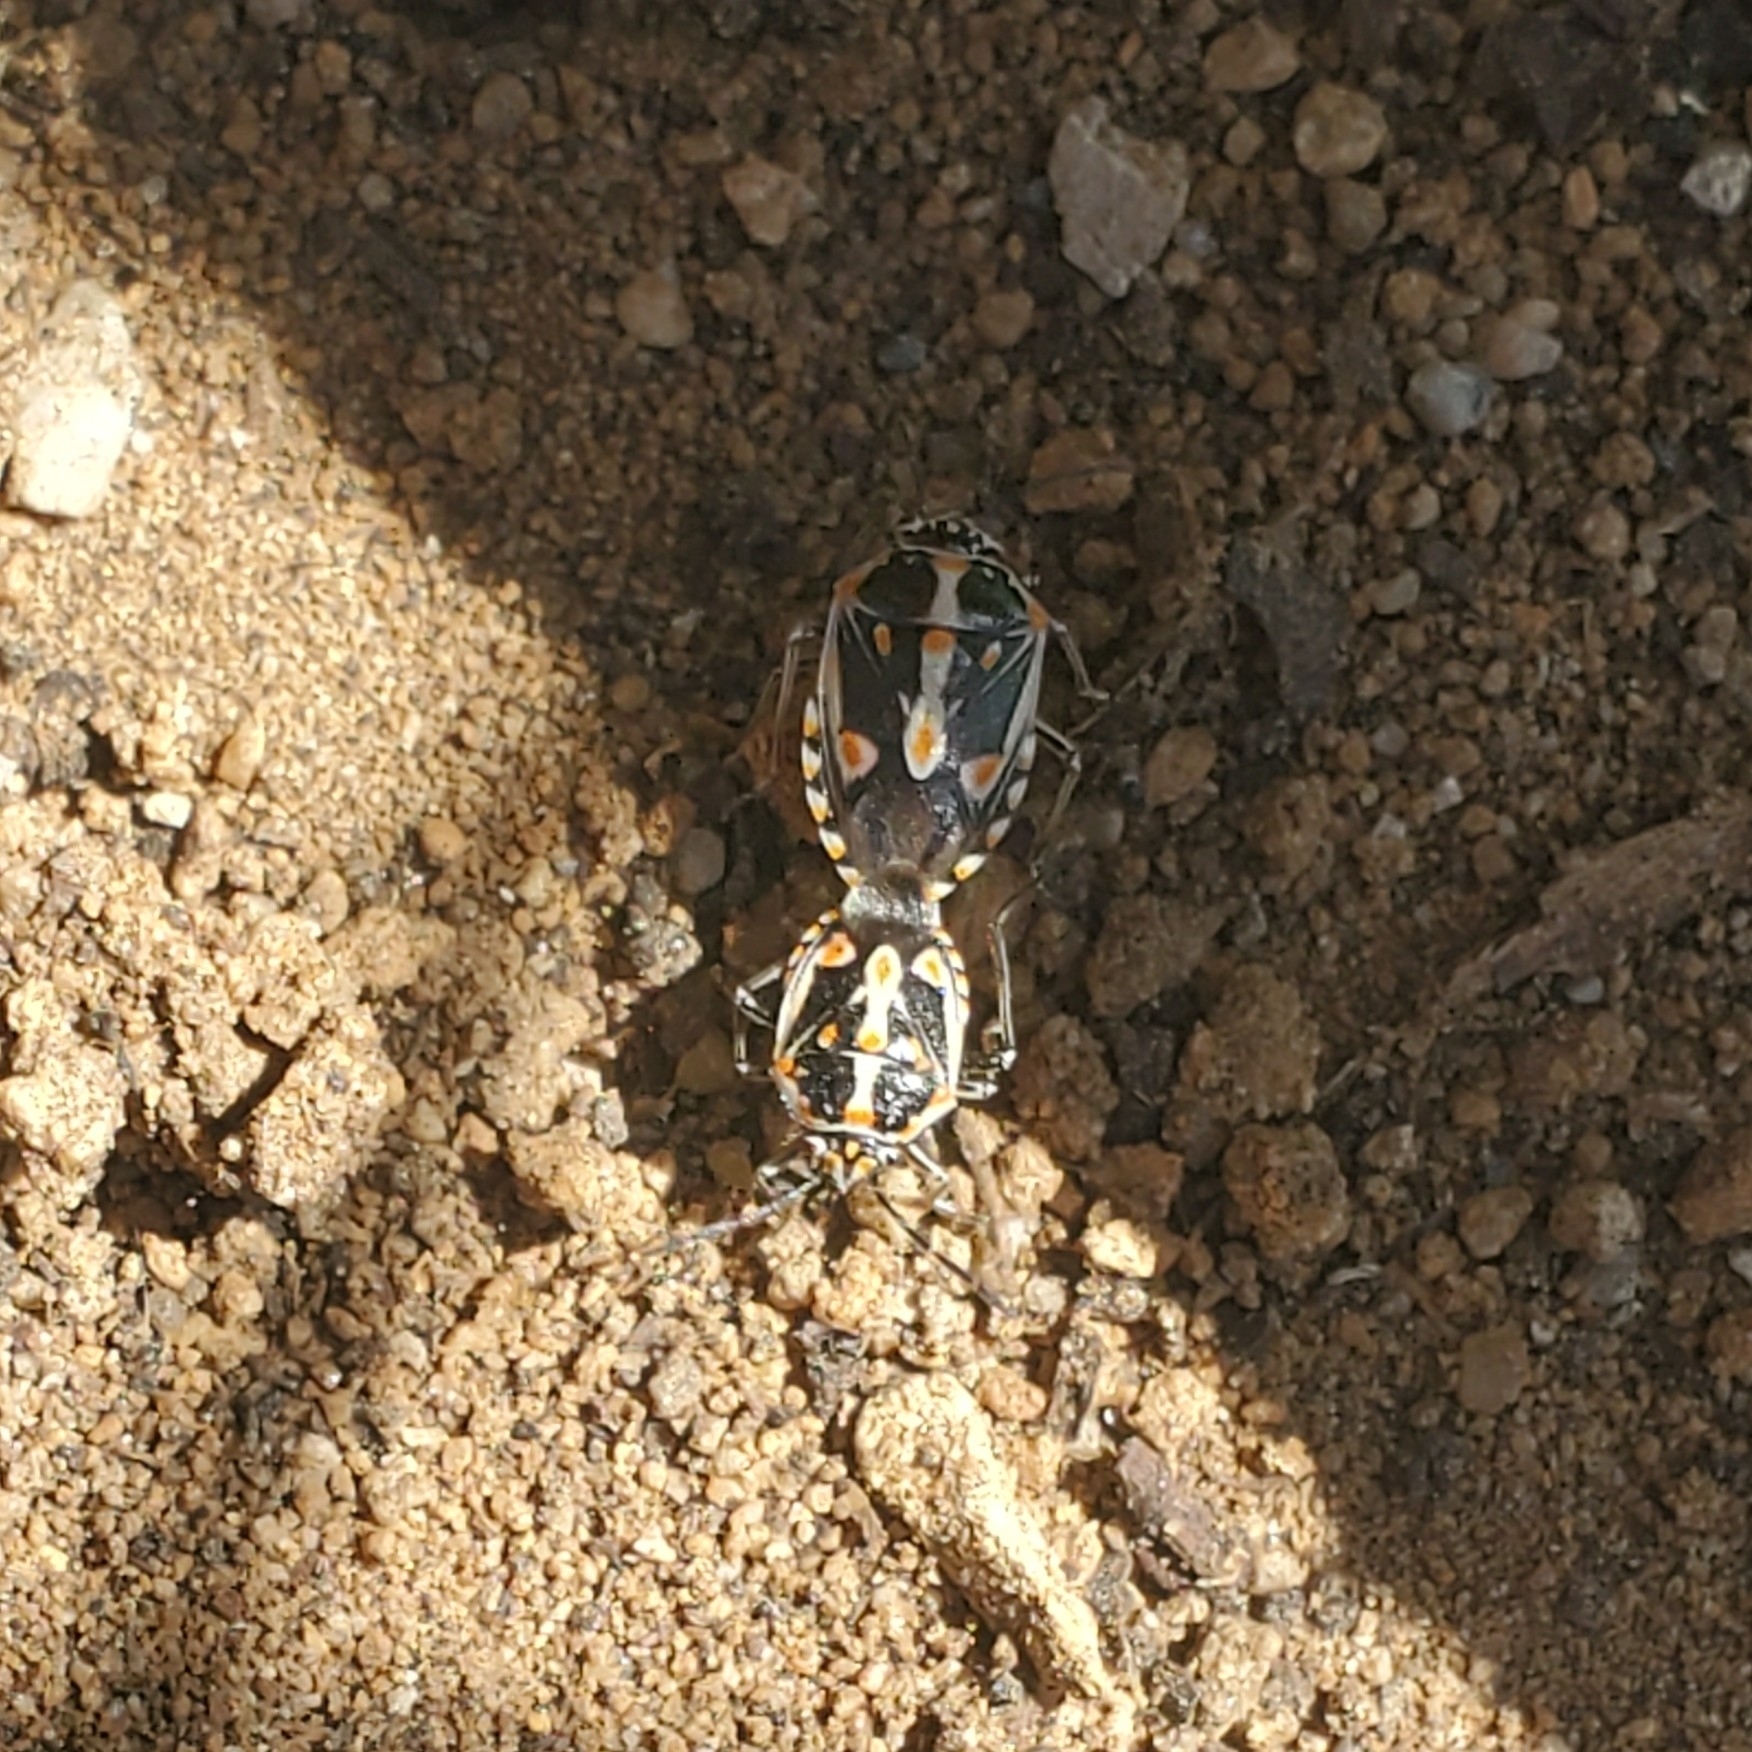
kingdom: Animalia
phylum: Arthropoda
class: Insecta
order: Hemiptera
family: Pentatomidae
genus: Bagrada
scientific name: Bagrada hilaris
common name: Bagrada bug
